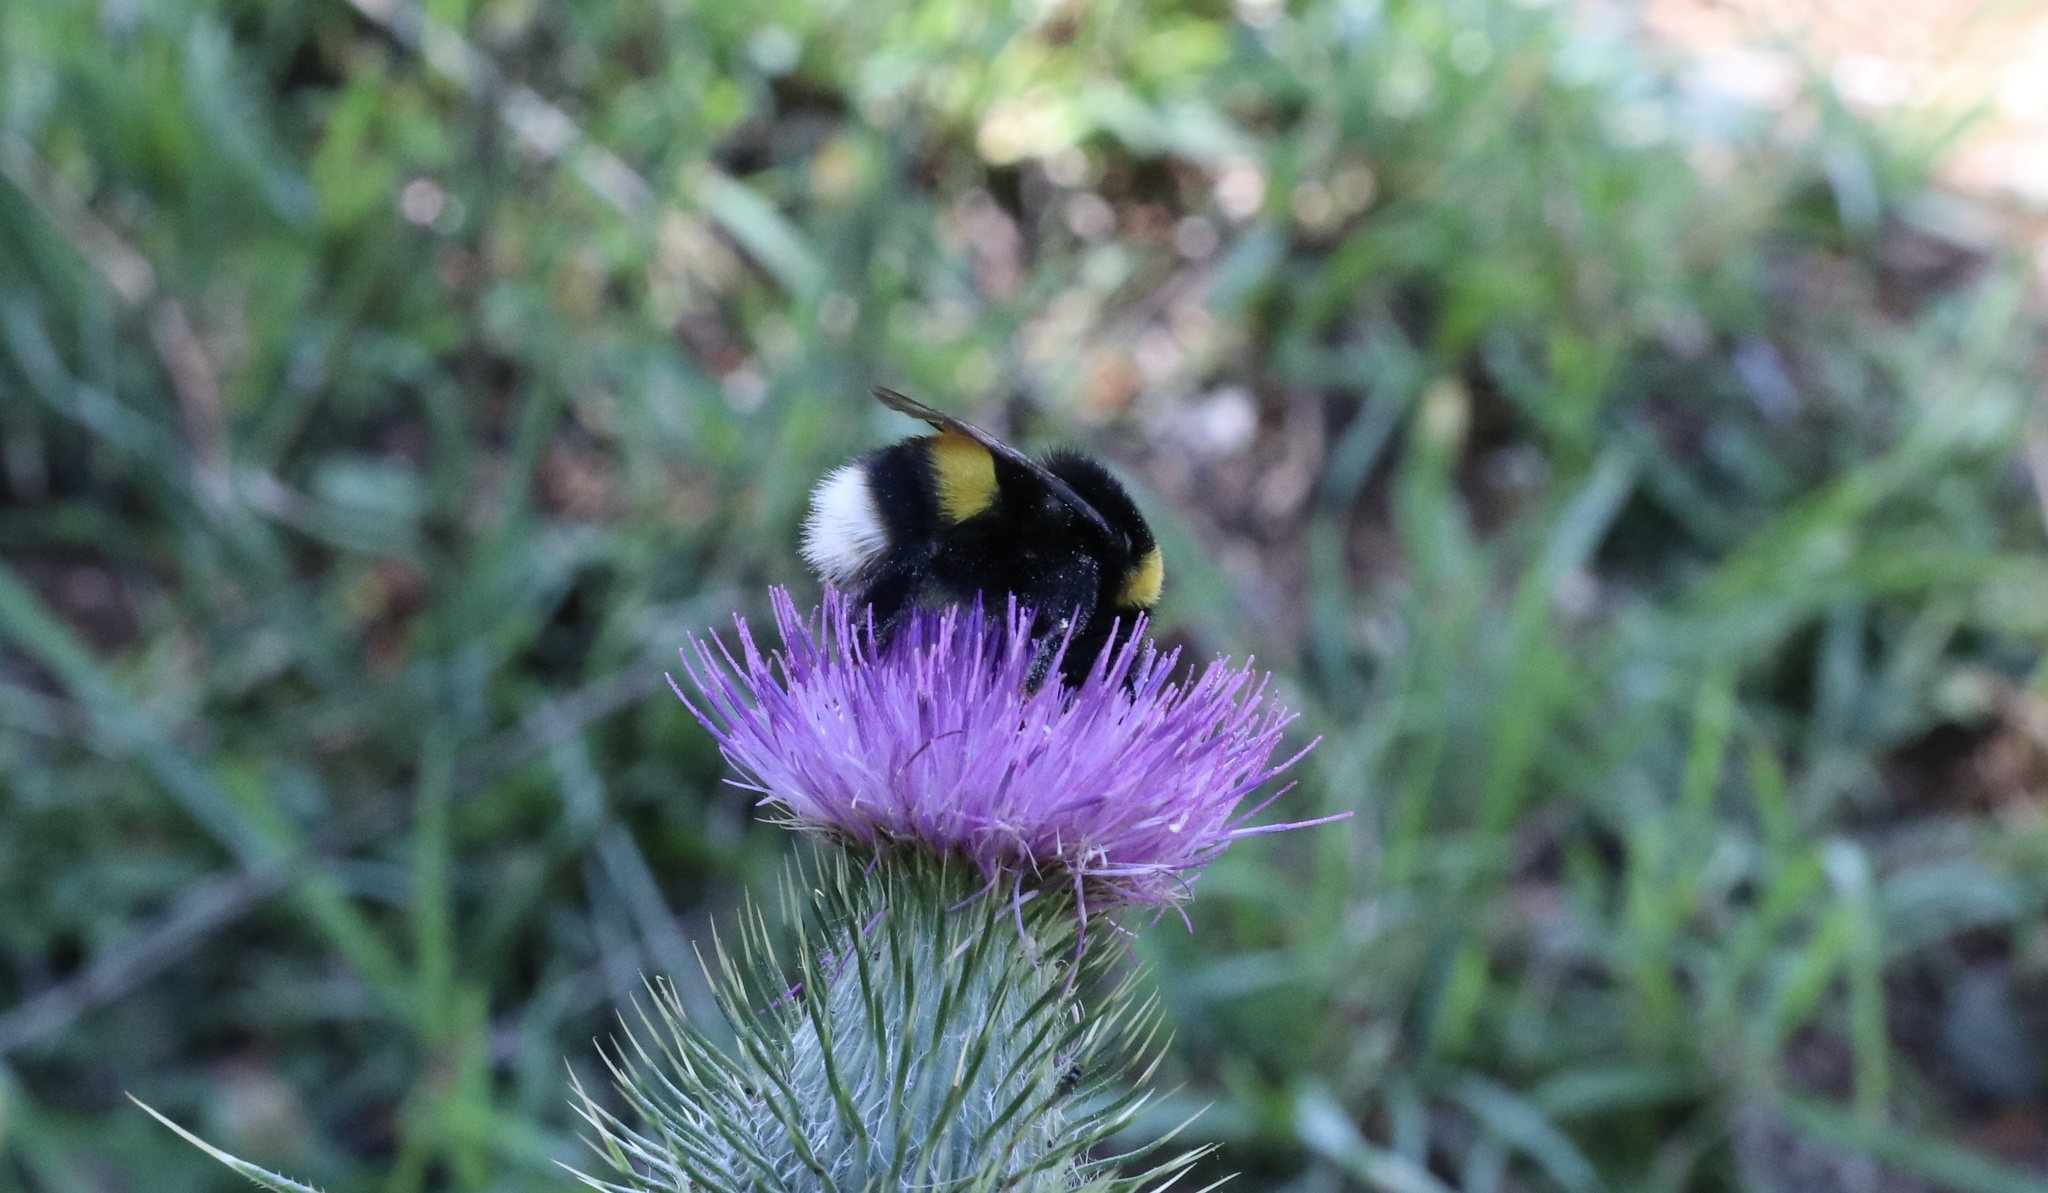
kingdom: Animalia
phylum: Arthropoda
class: Insecta
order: Hymenoptera
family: Apidae
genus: Bombus
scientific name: Bombus terrestris
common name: Buff-tailed bumblebee
